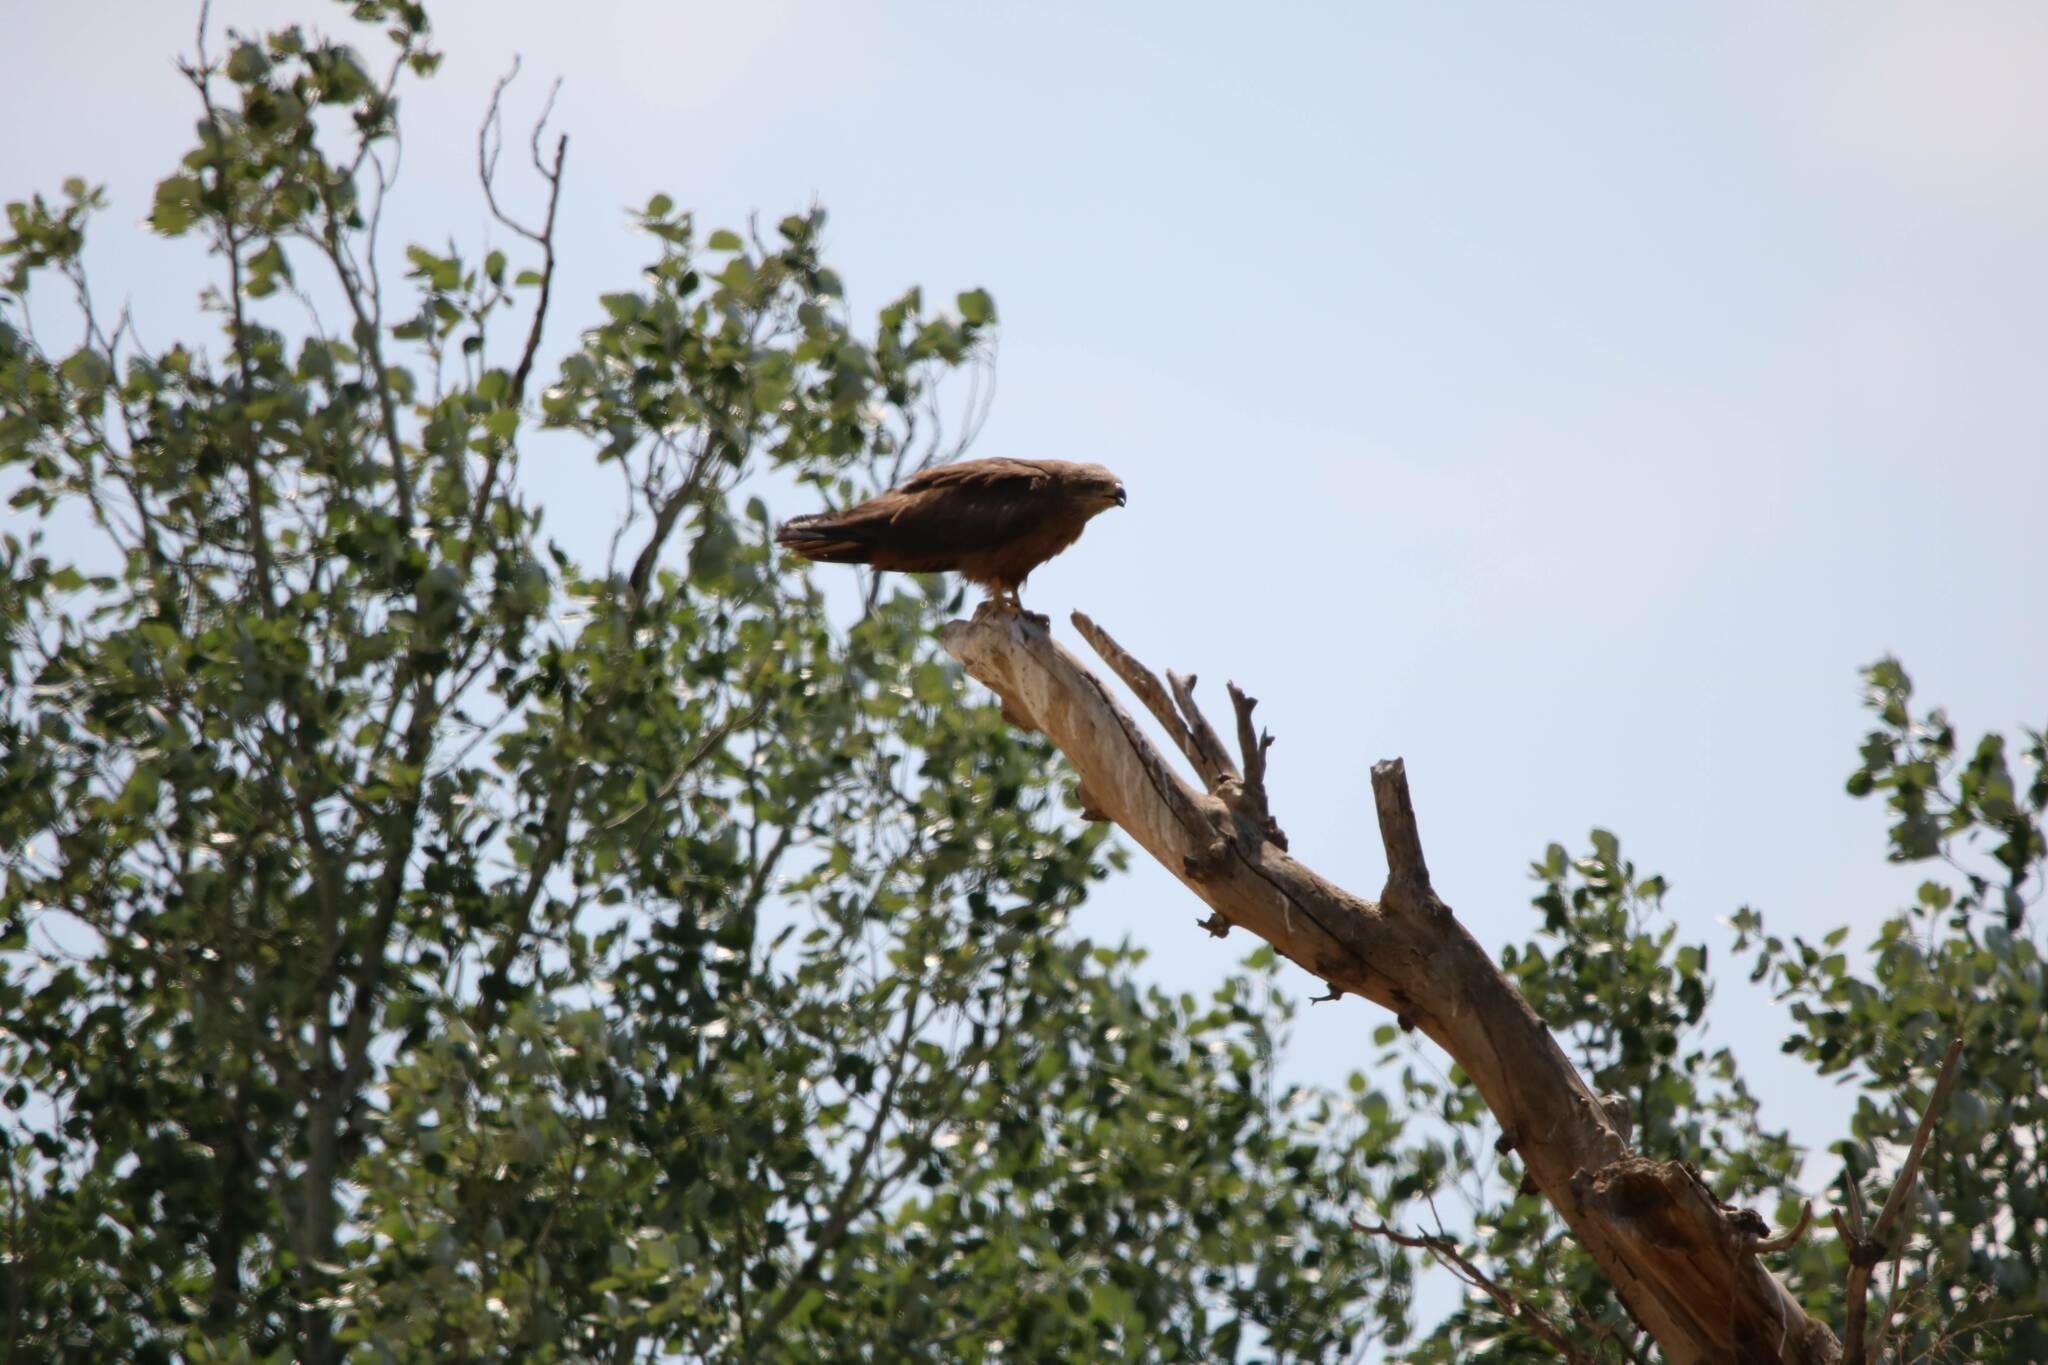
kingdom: Animalia
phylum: Chordata
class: Aves
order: Accipitriformes
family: Accipitridae
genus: Milvus
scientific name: Milvus migrans
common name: Black kite
